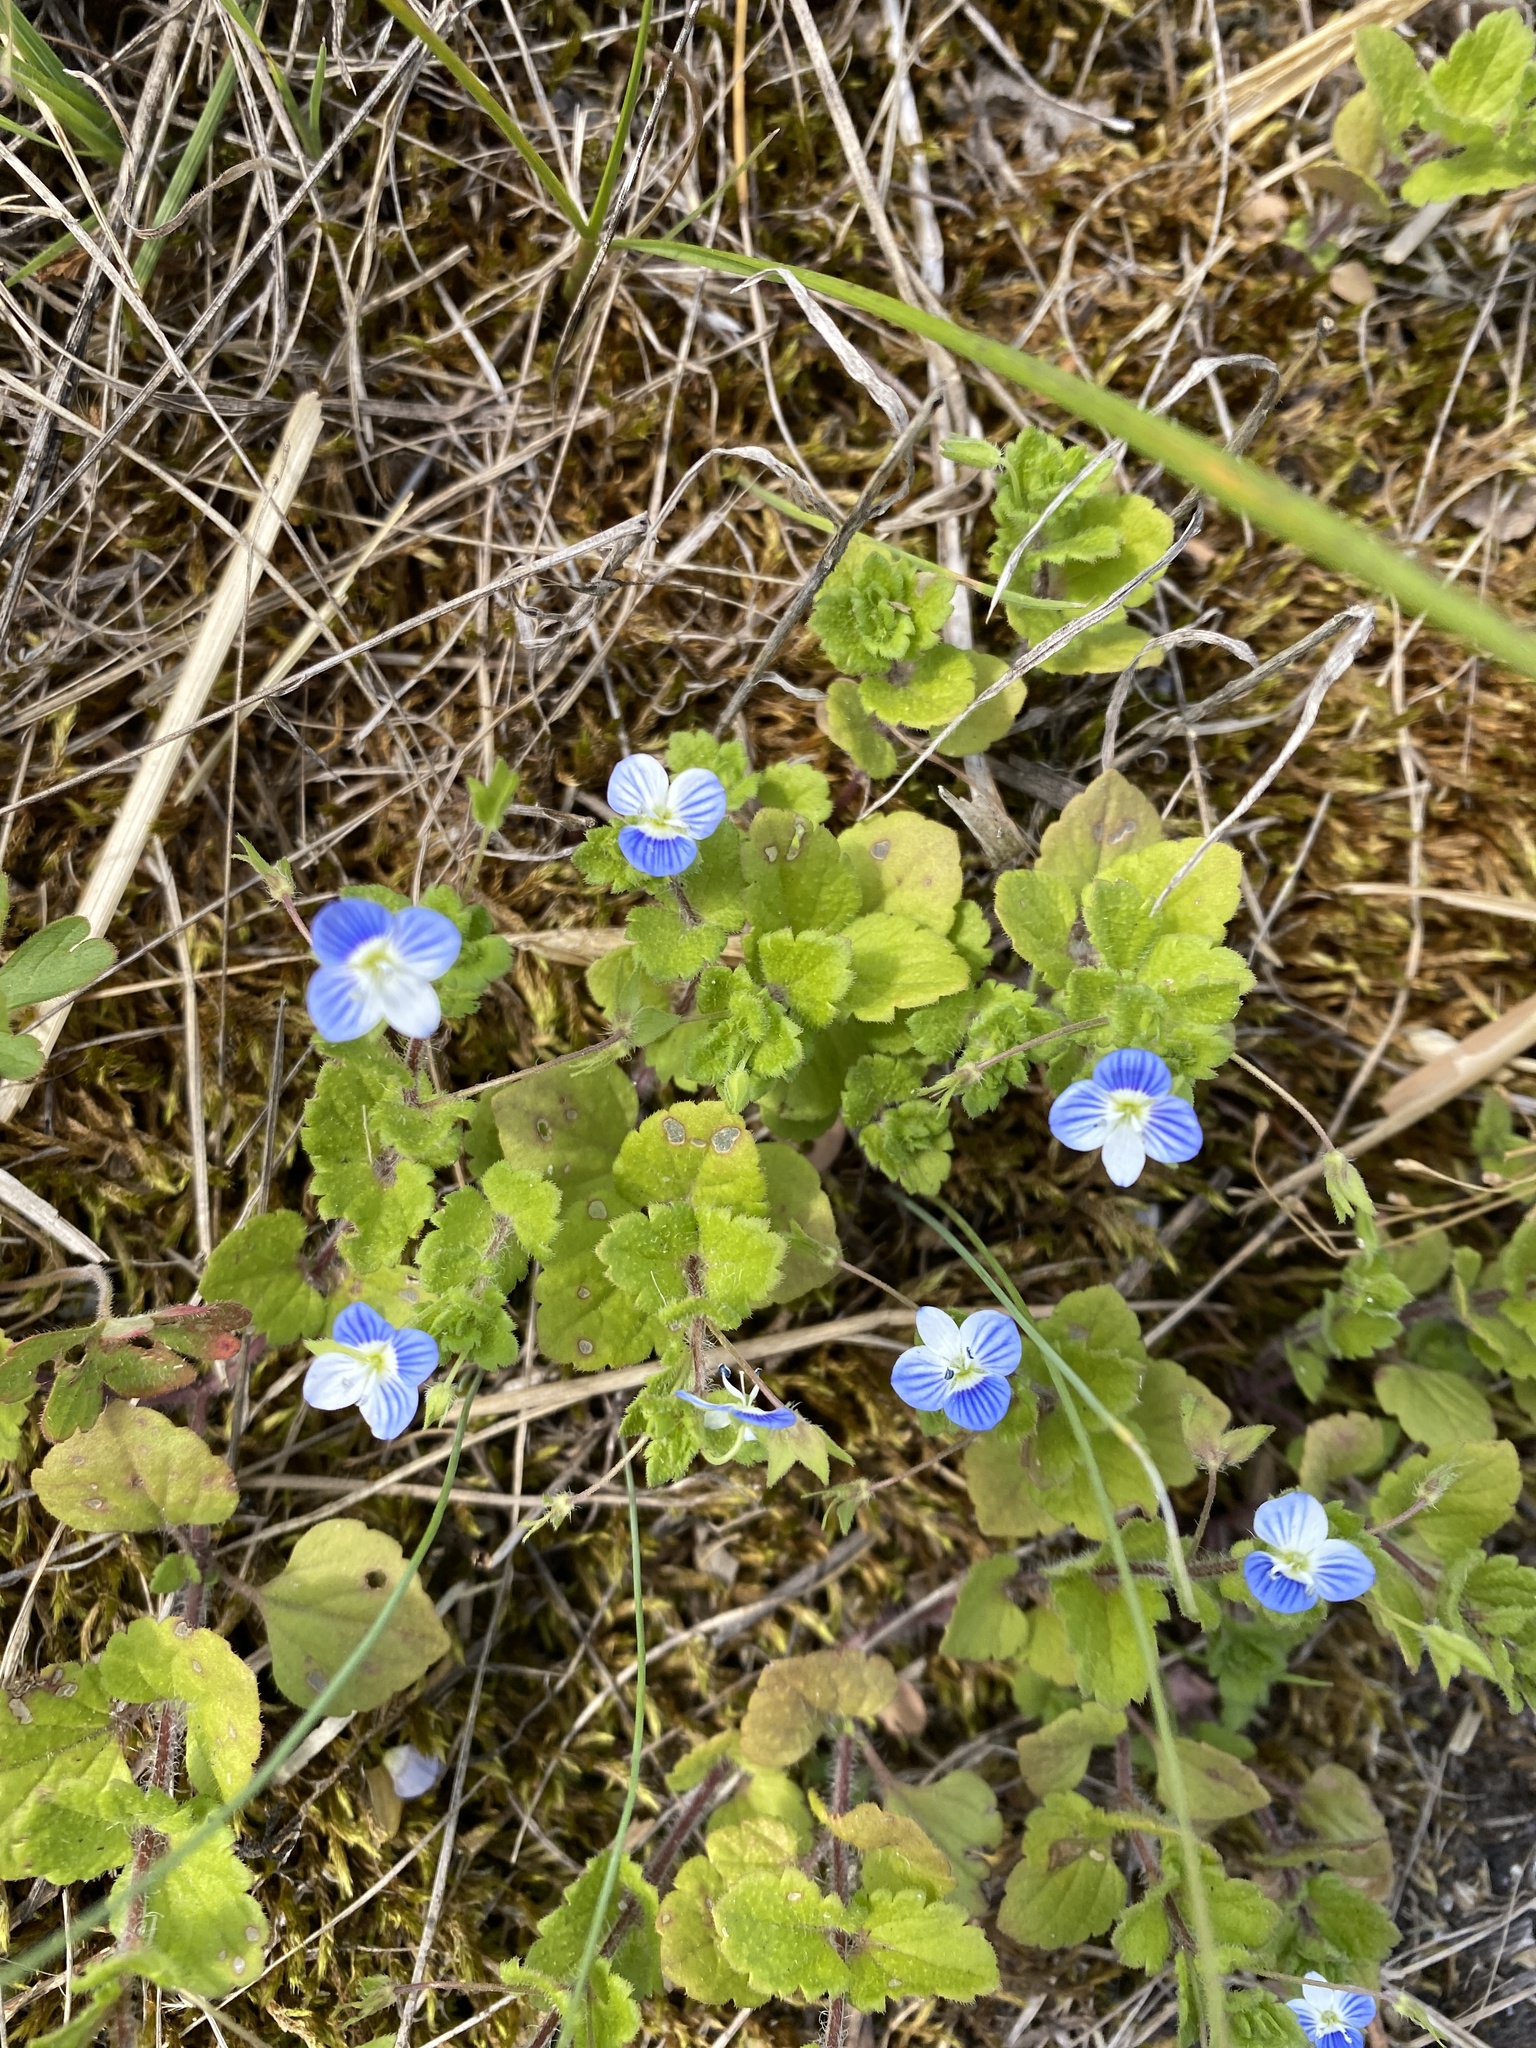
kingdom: Plantae
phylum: Tracheophyta
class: Magnoliopsida
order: Lamiales
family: Plantaginaceae
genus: Veronica
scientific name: Veronica persica
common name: Common field-speedwell
